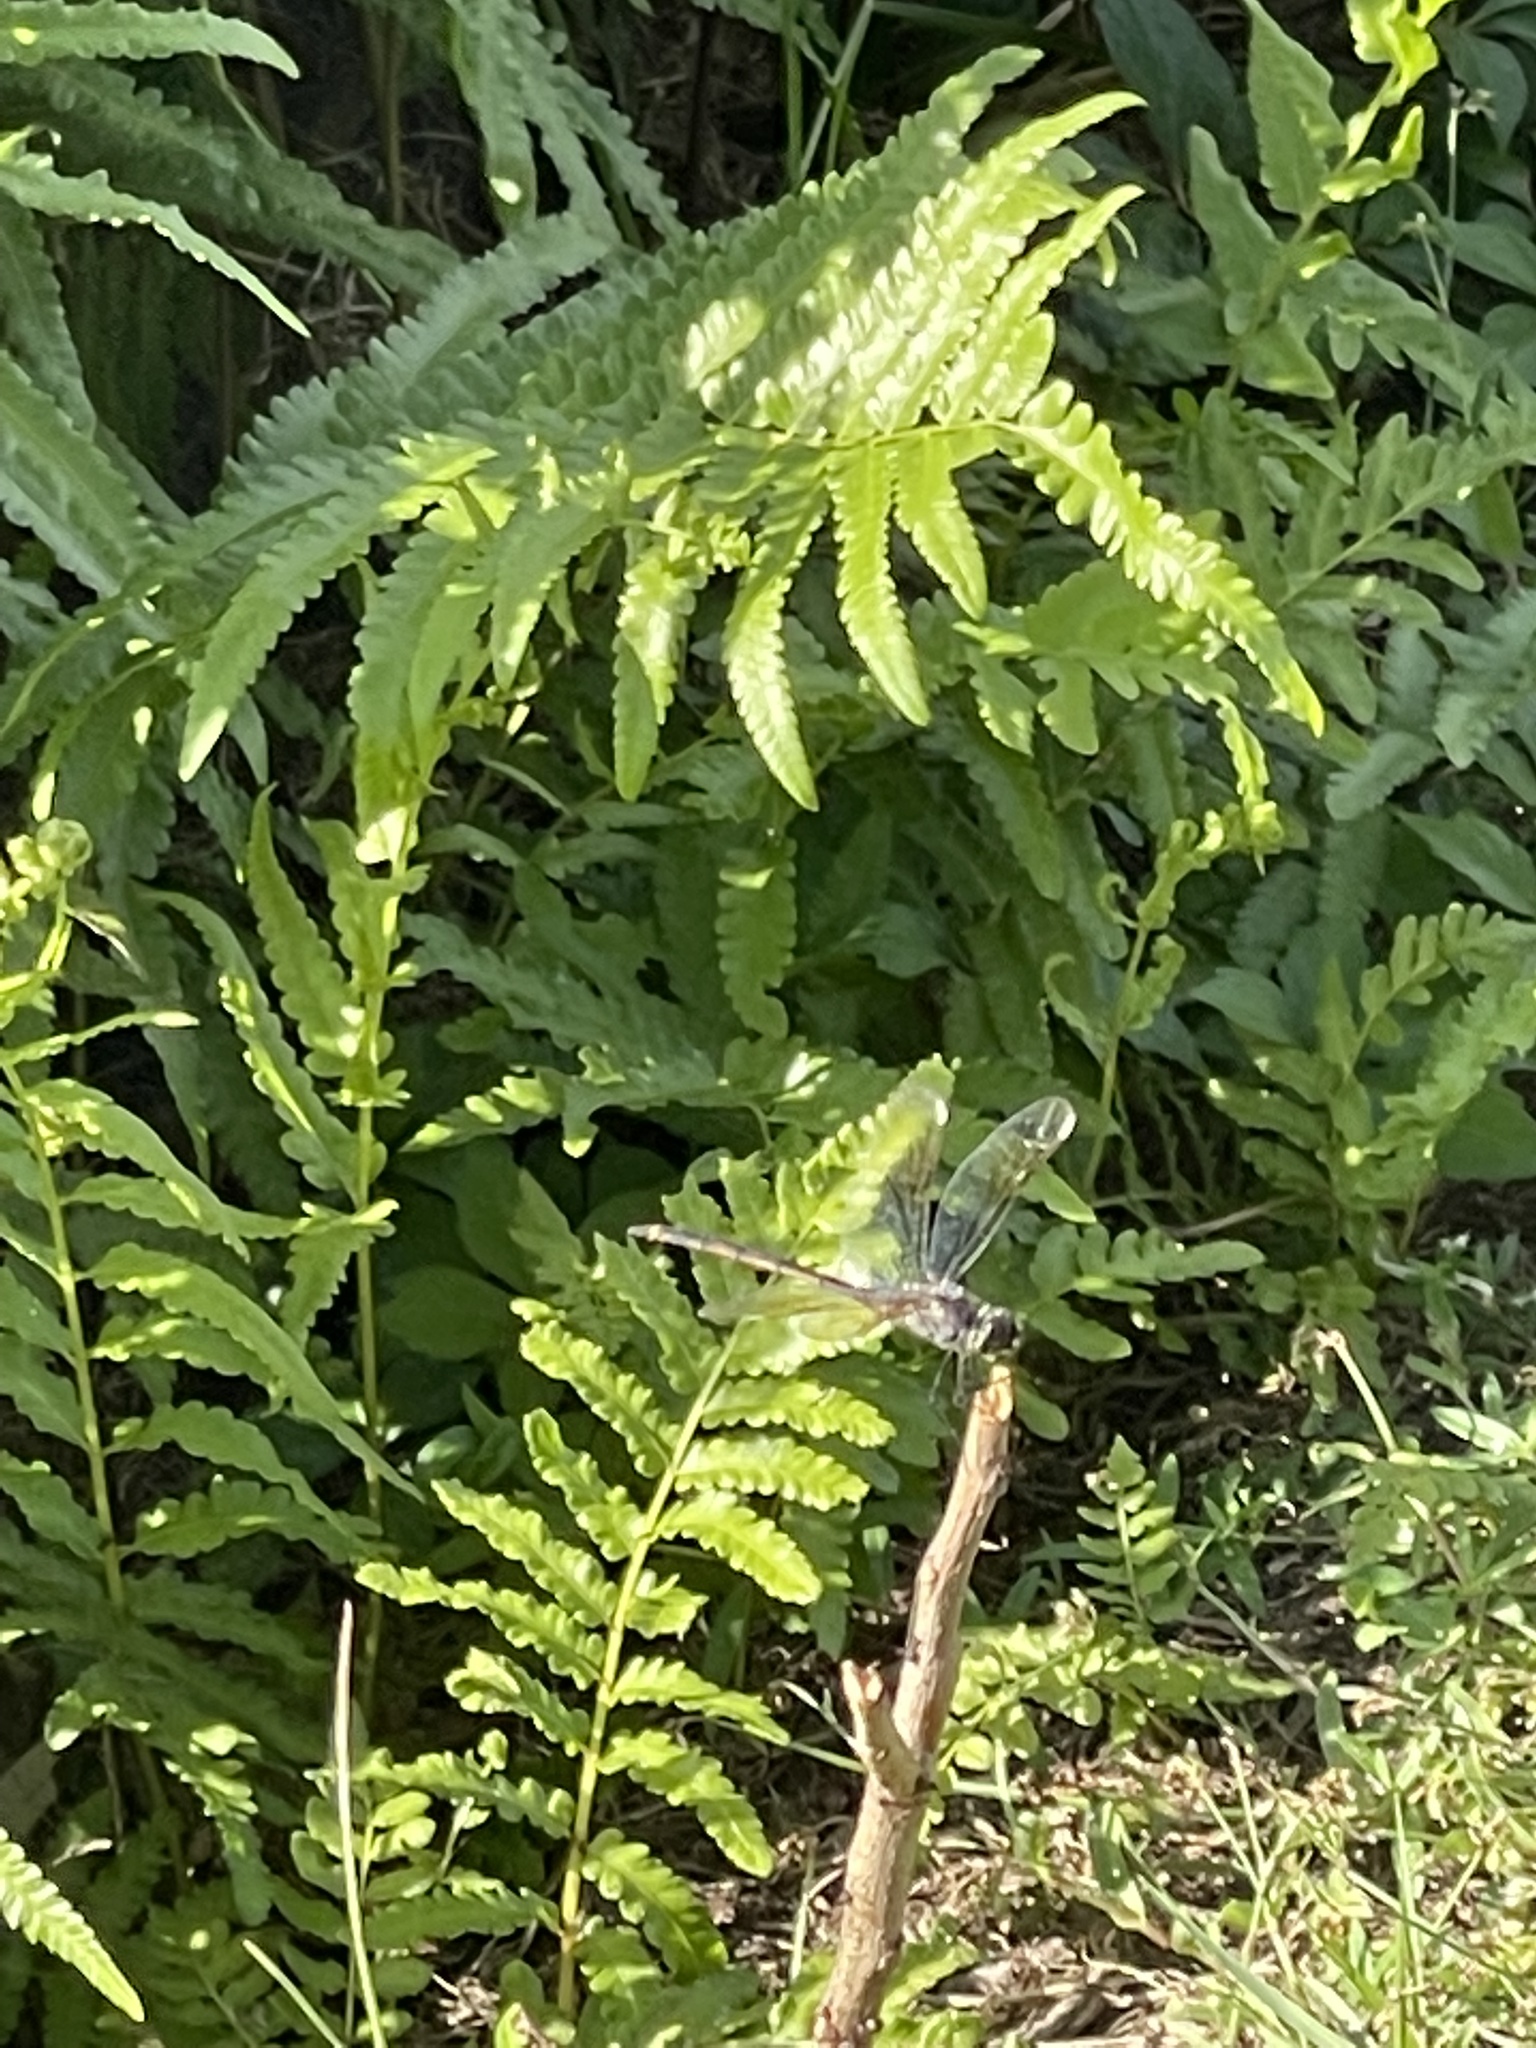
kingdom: Animalia
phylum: Arthropoda
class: Insecta
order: Odonata
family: Libellulidae
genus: Brachymesia
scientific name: Brachymesia gravida
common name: Four-spotted pennant
